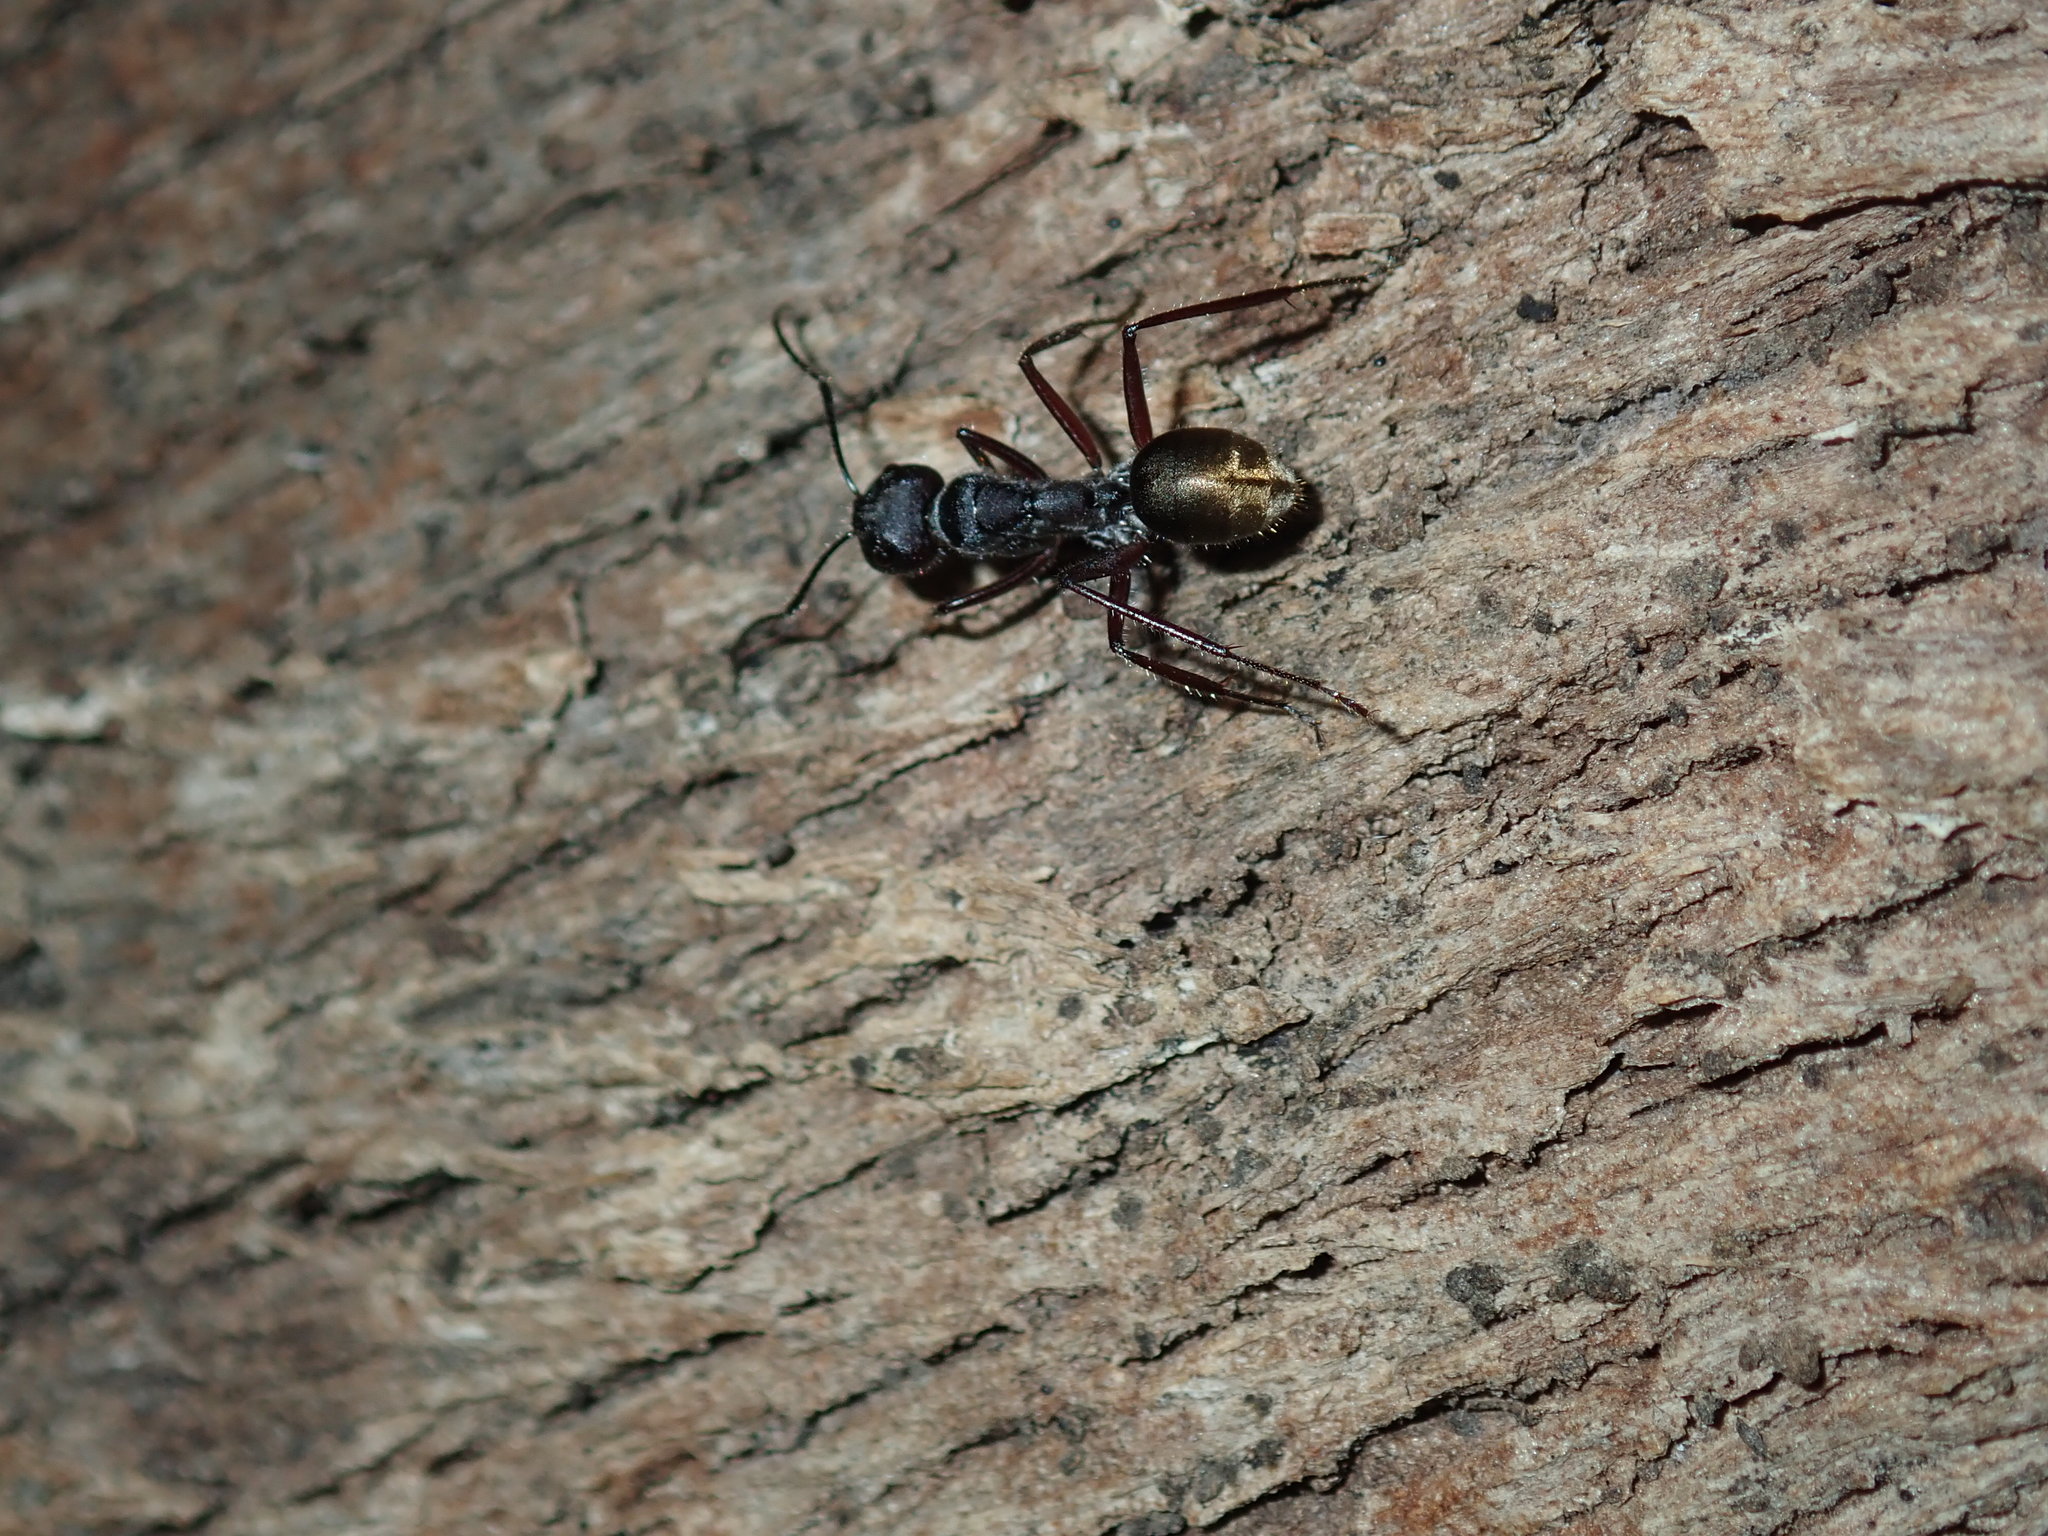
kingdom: Animalia
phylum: Arthropoda
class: Insecta
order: Hymenoptera
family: Formicidae
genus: Camponotus
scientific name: Camponotus suffusus
